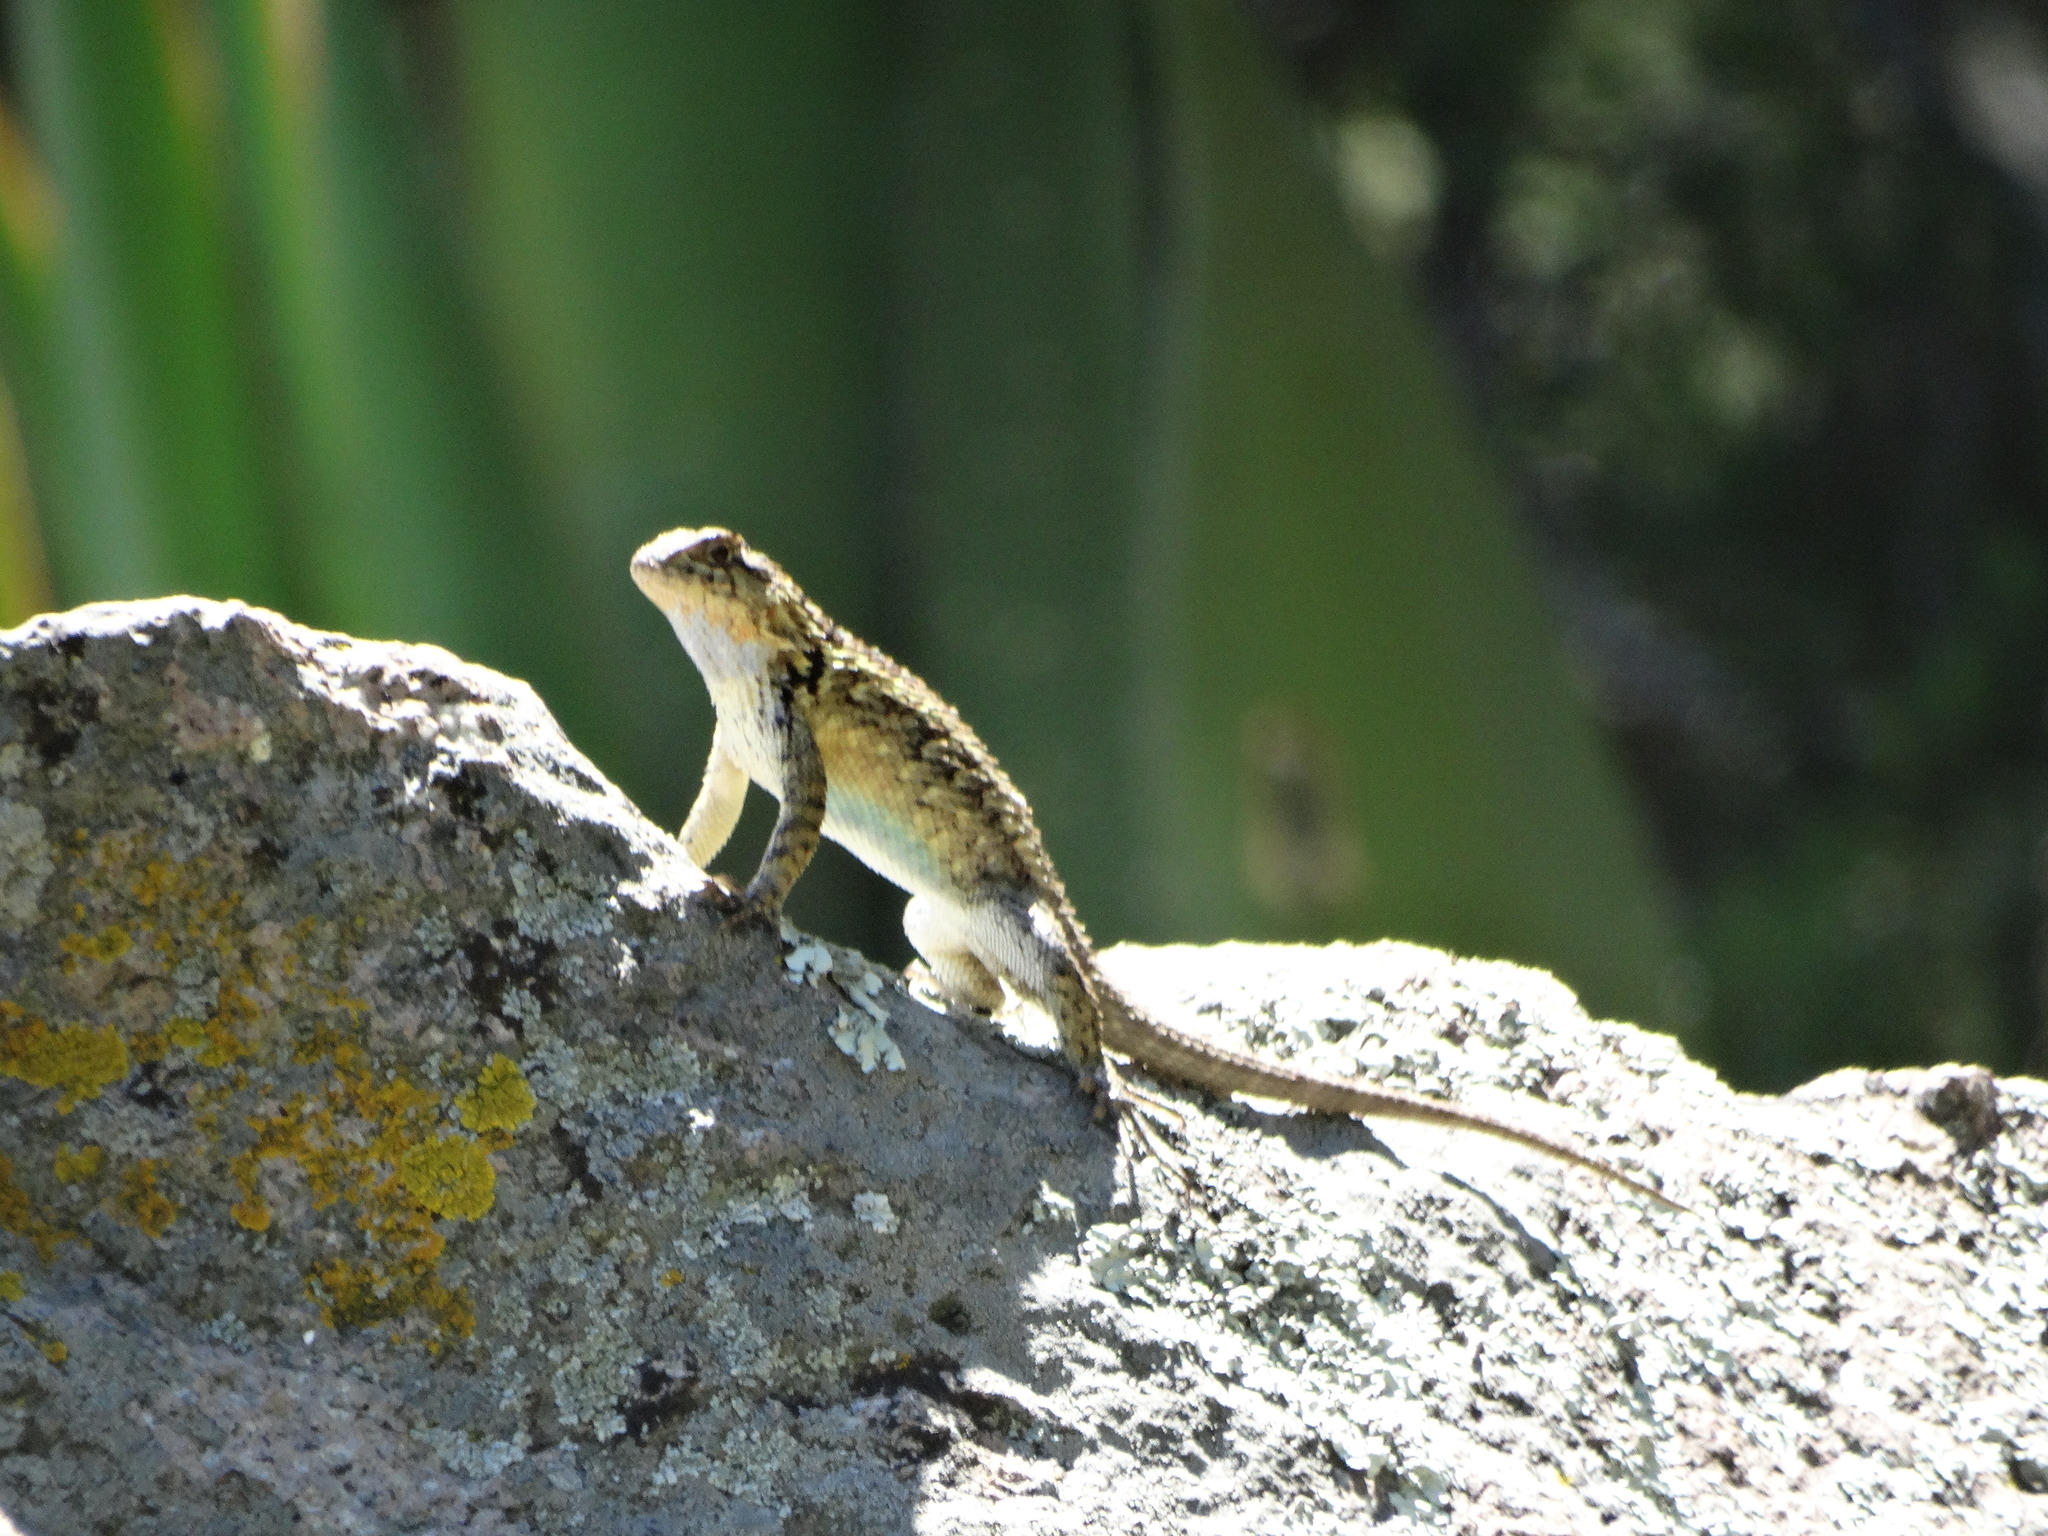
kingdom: Animalia
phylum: Chordata
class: Squamata
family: Phrynosomatidae
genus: Sceloporus
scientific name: Sceloporus spinosus
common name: Blue-spotted spiny lizard [caeruleopunctatus]
